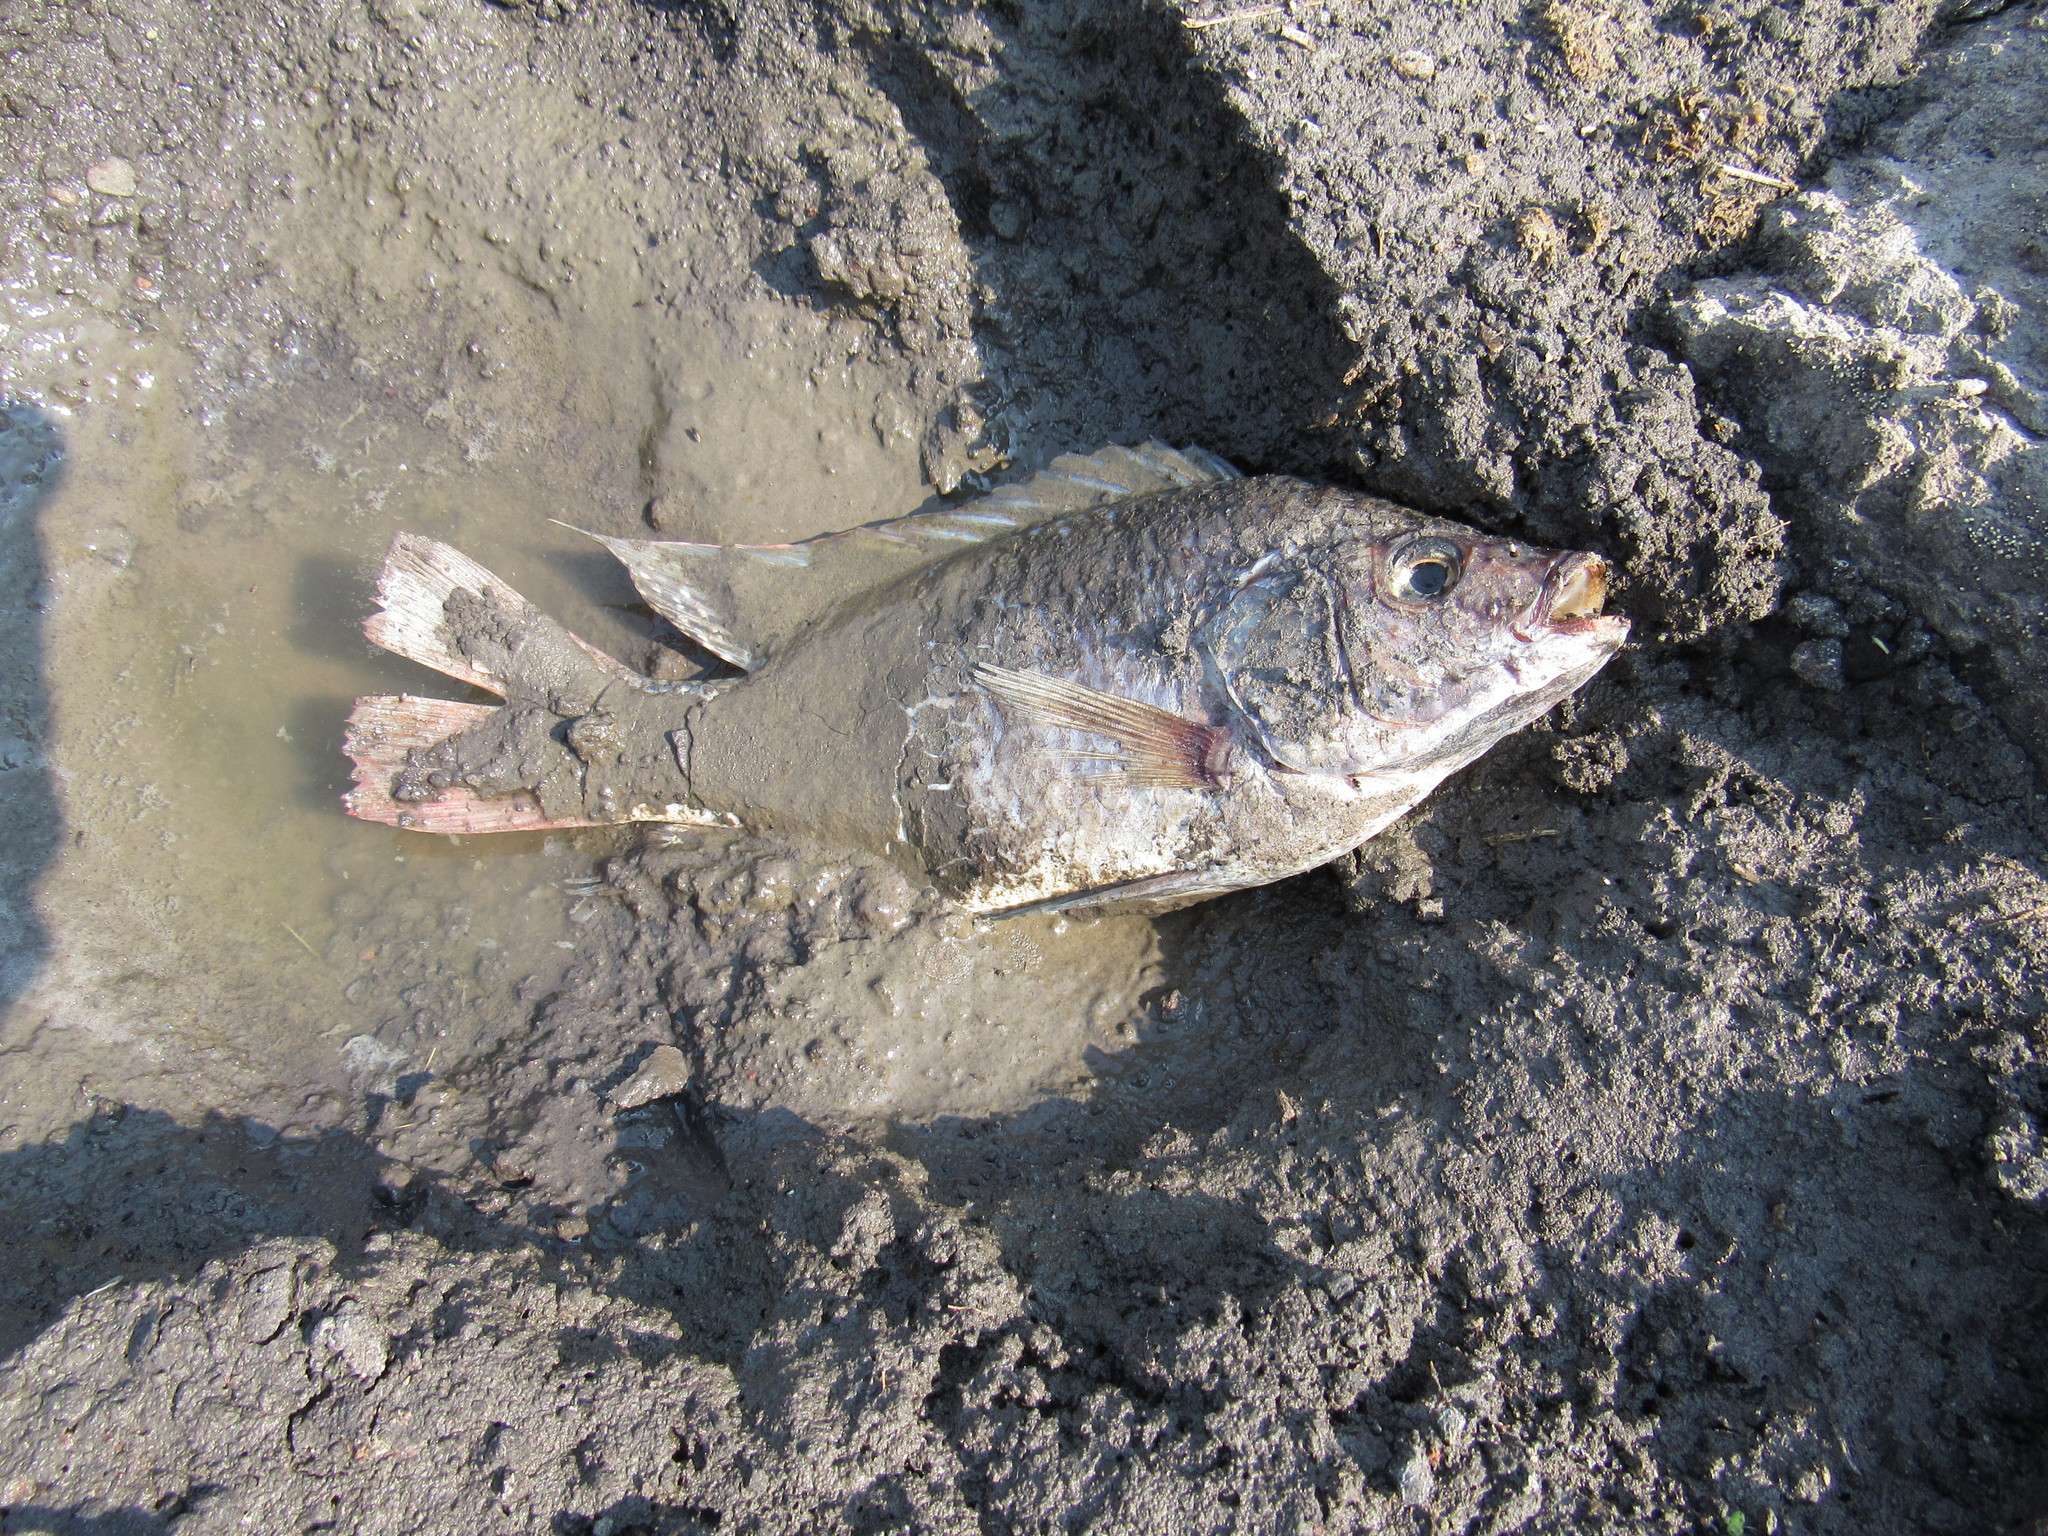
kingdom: Animalia
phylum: Chordata
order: Perciformes
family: Cichlidae
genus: Oreochromis
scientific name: Oreochromis niloticus
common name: Nile tilapia
